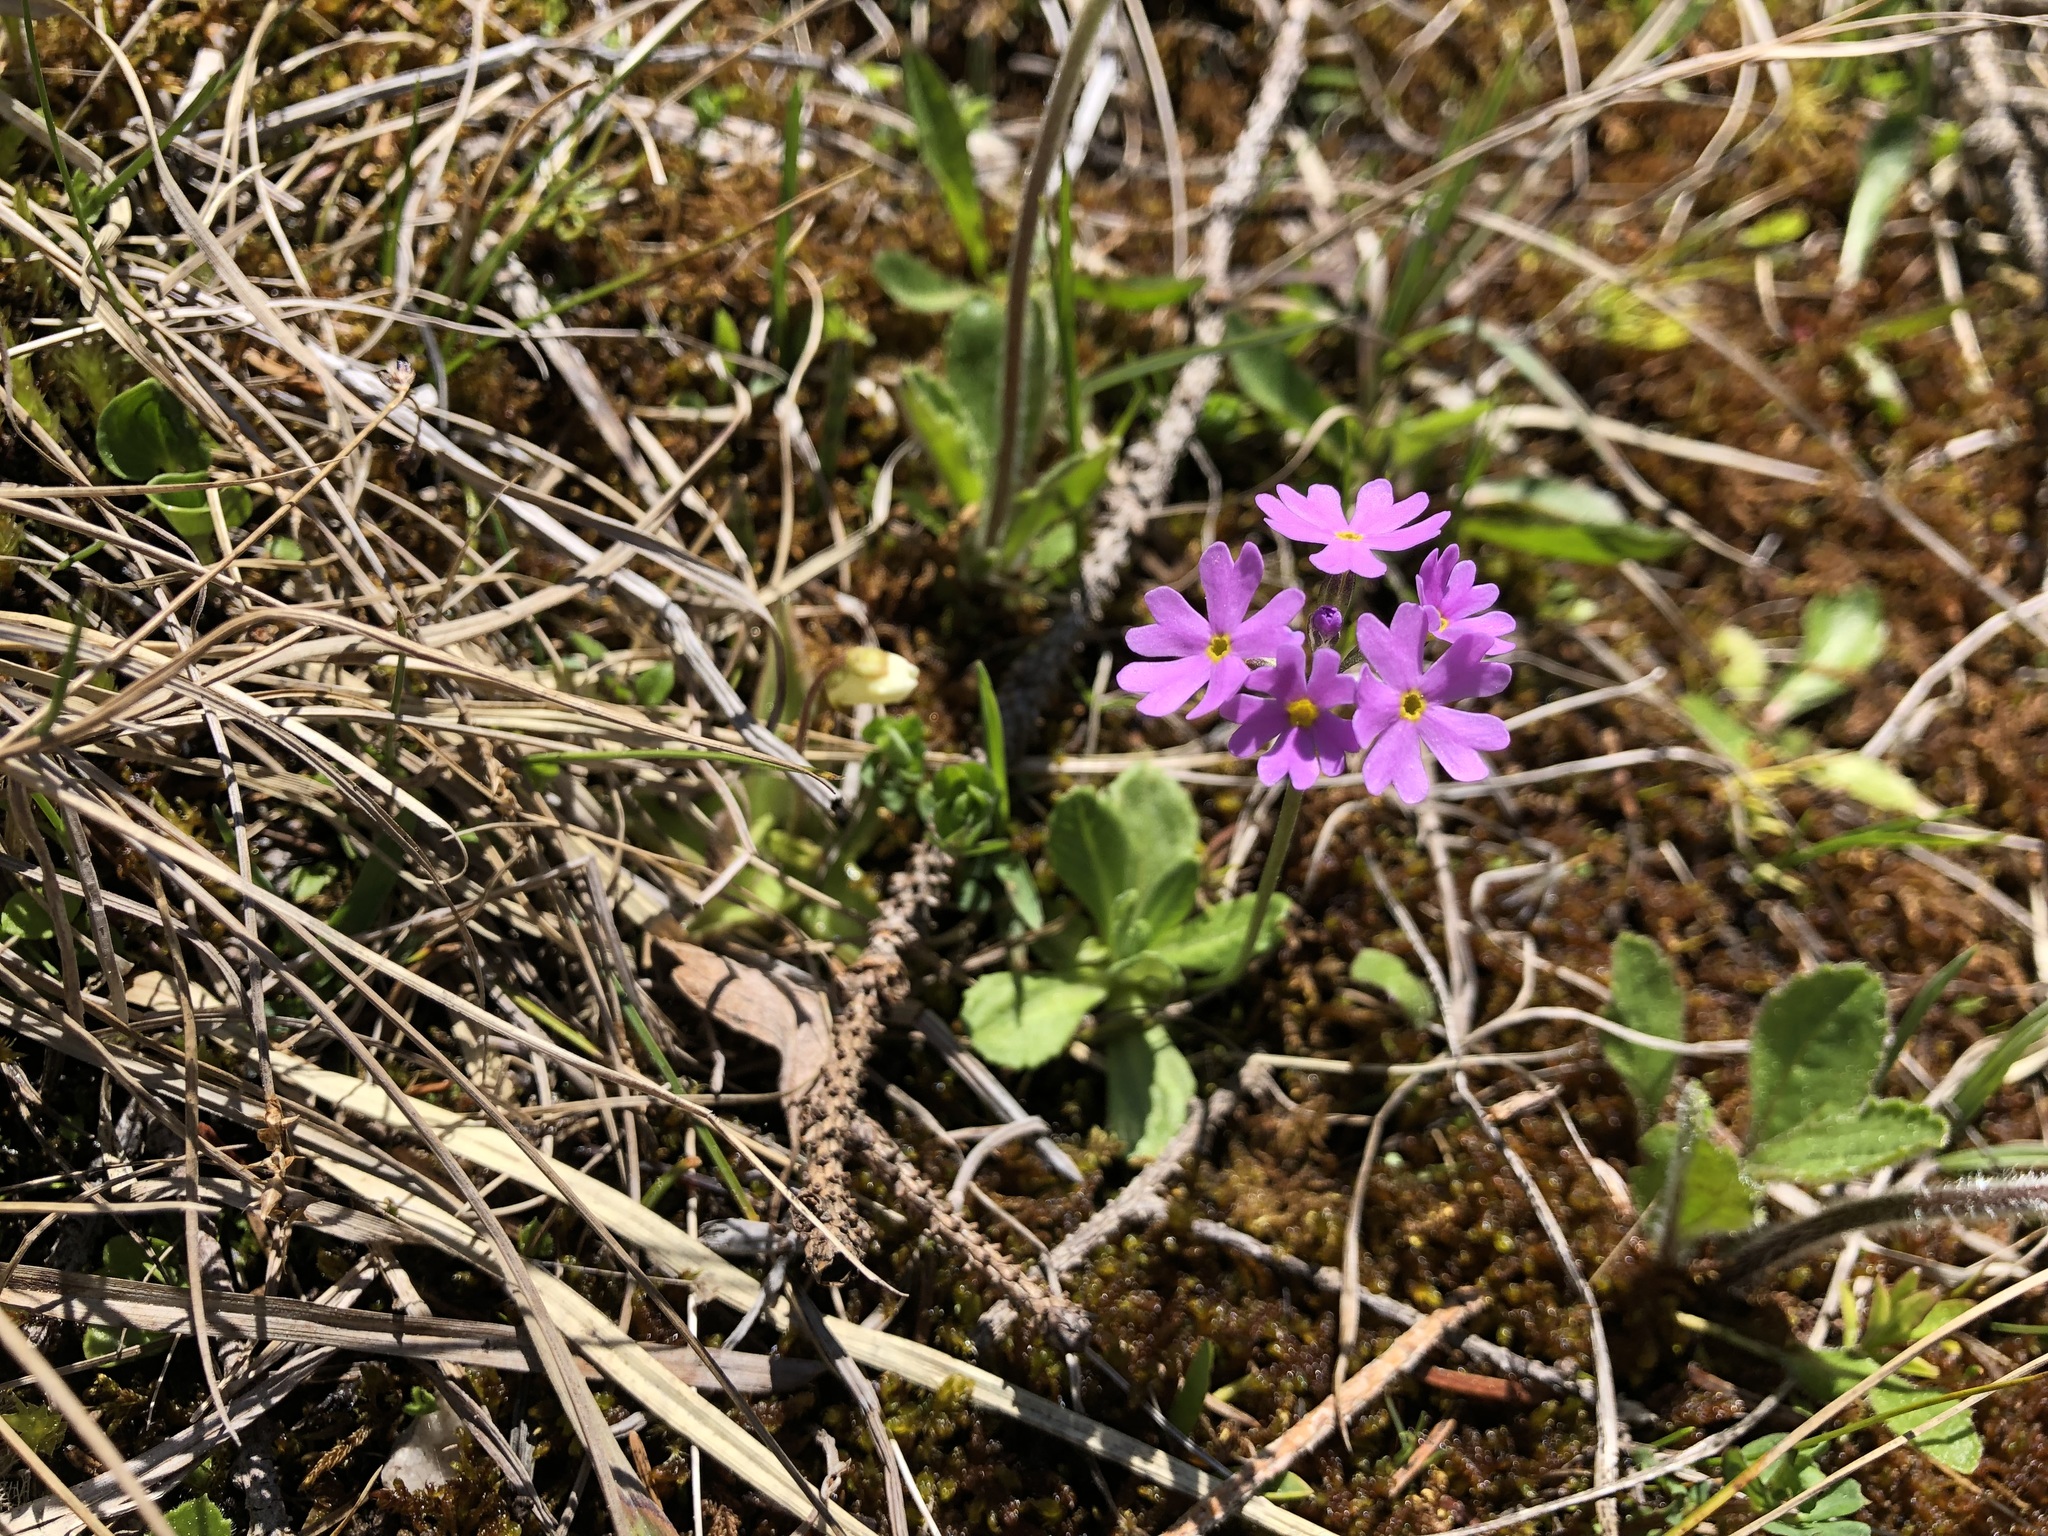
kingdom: Plantae
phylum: Tracheophyta
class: Magnoliopsida
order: Ericales
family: Primulaceae
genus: Primula
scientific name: Primula farinosa
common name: Bird's-eye primrose
